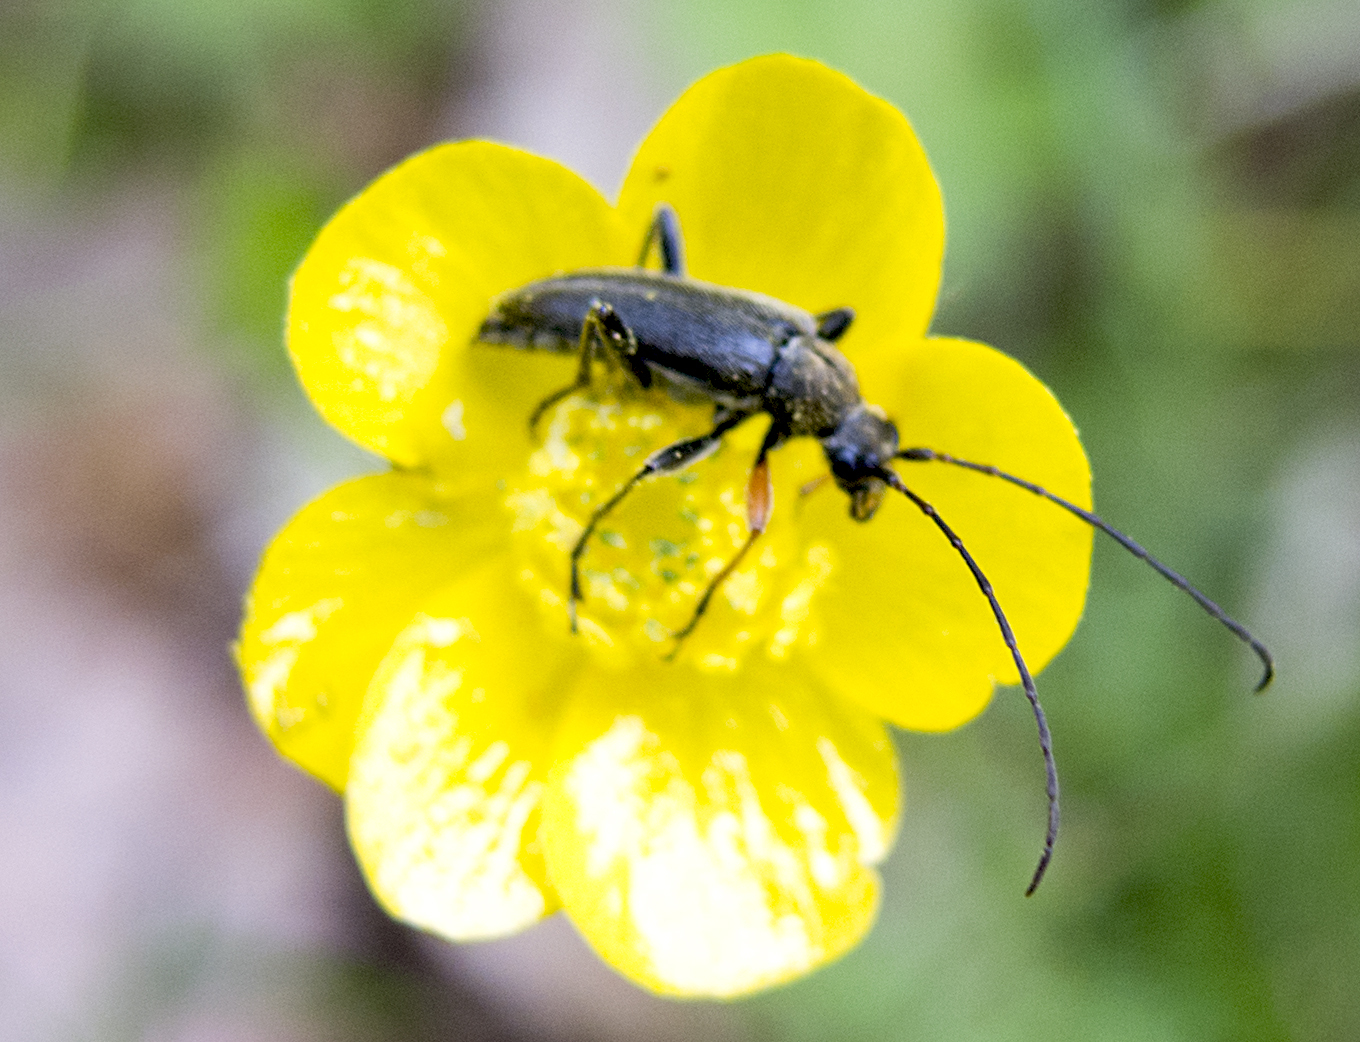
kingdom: Animalia
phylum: Arthropoda
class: Insecta
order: Coleoptera
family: Cerambycidae
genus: Cortodera
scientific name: Cortodera flavimana
